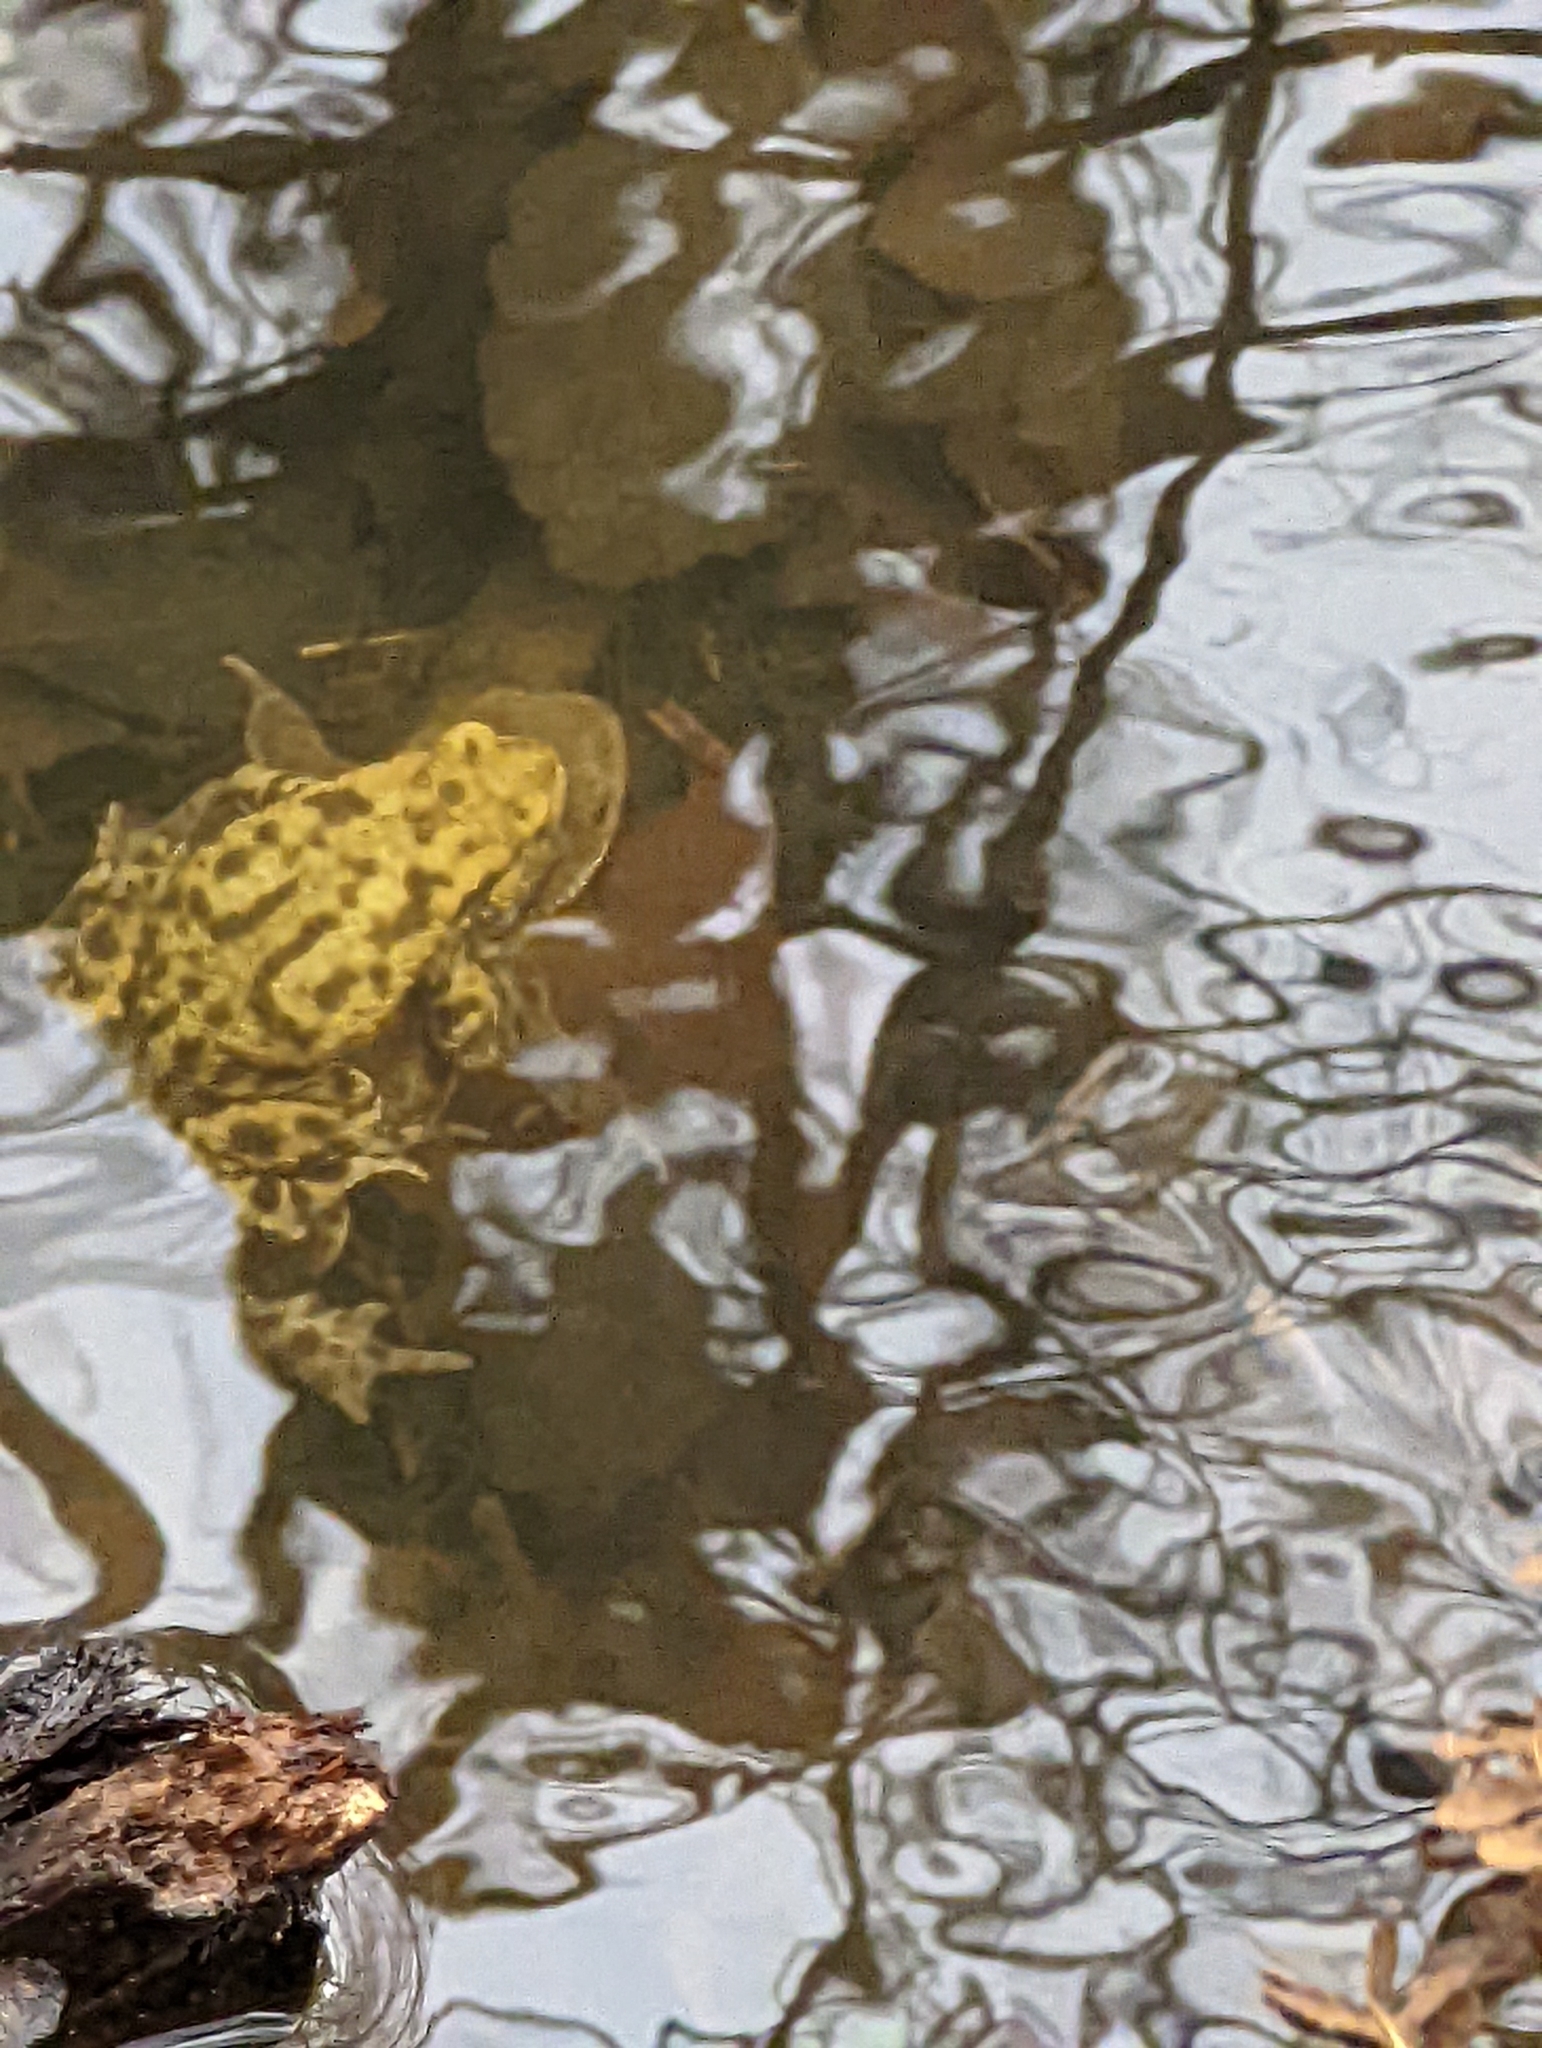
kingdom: Animalia
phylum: Chordata
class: Amphibia
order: Anura
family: Bufonidae
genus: Bufo
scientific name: Bufo bufo
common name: Common toad
